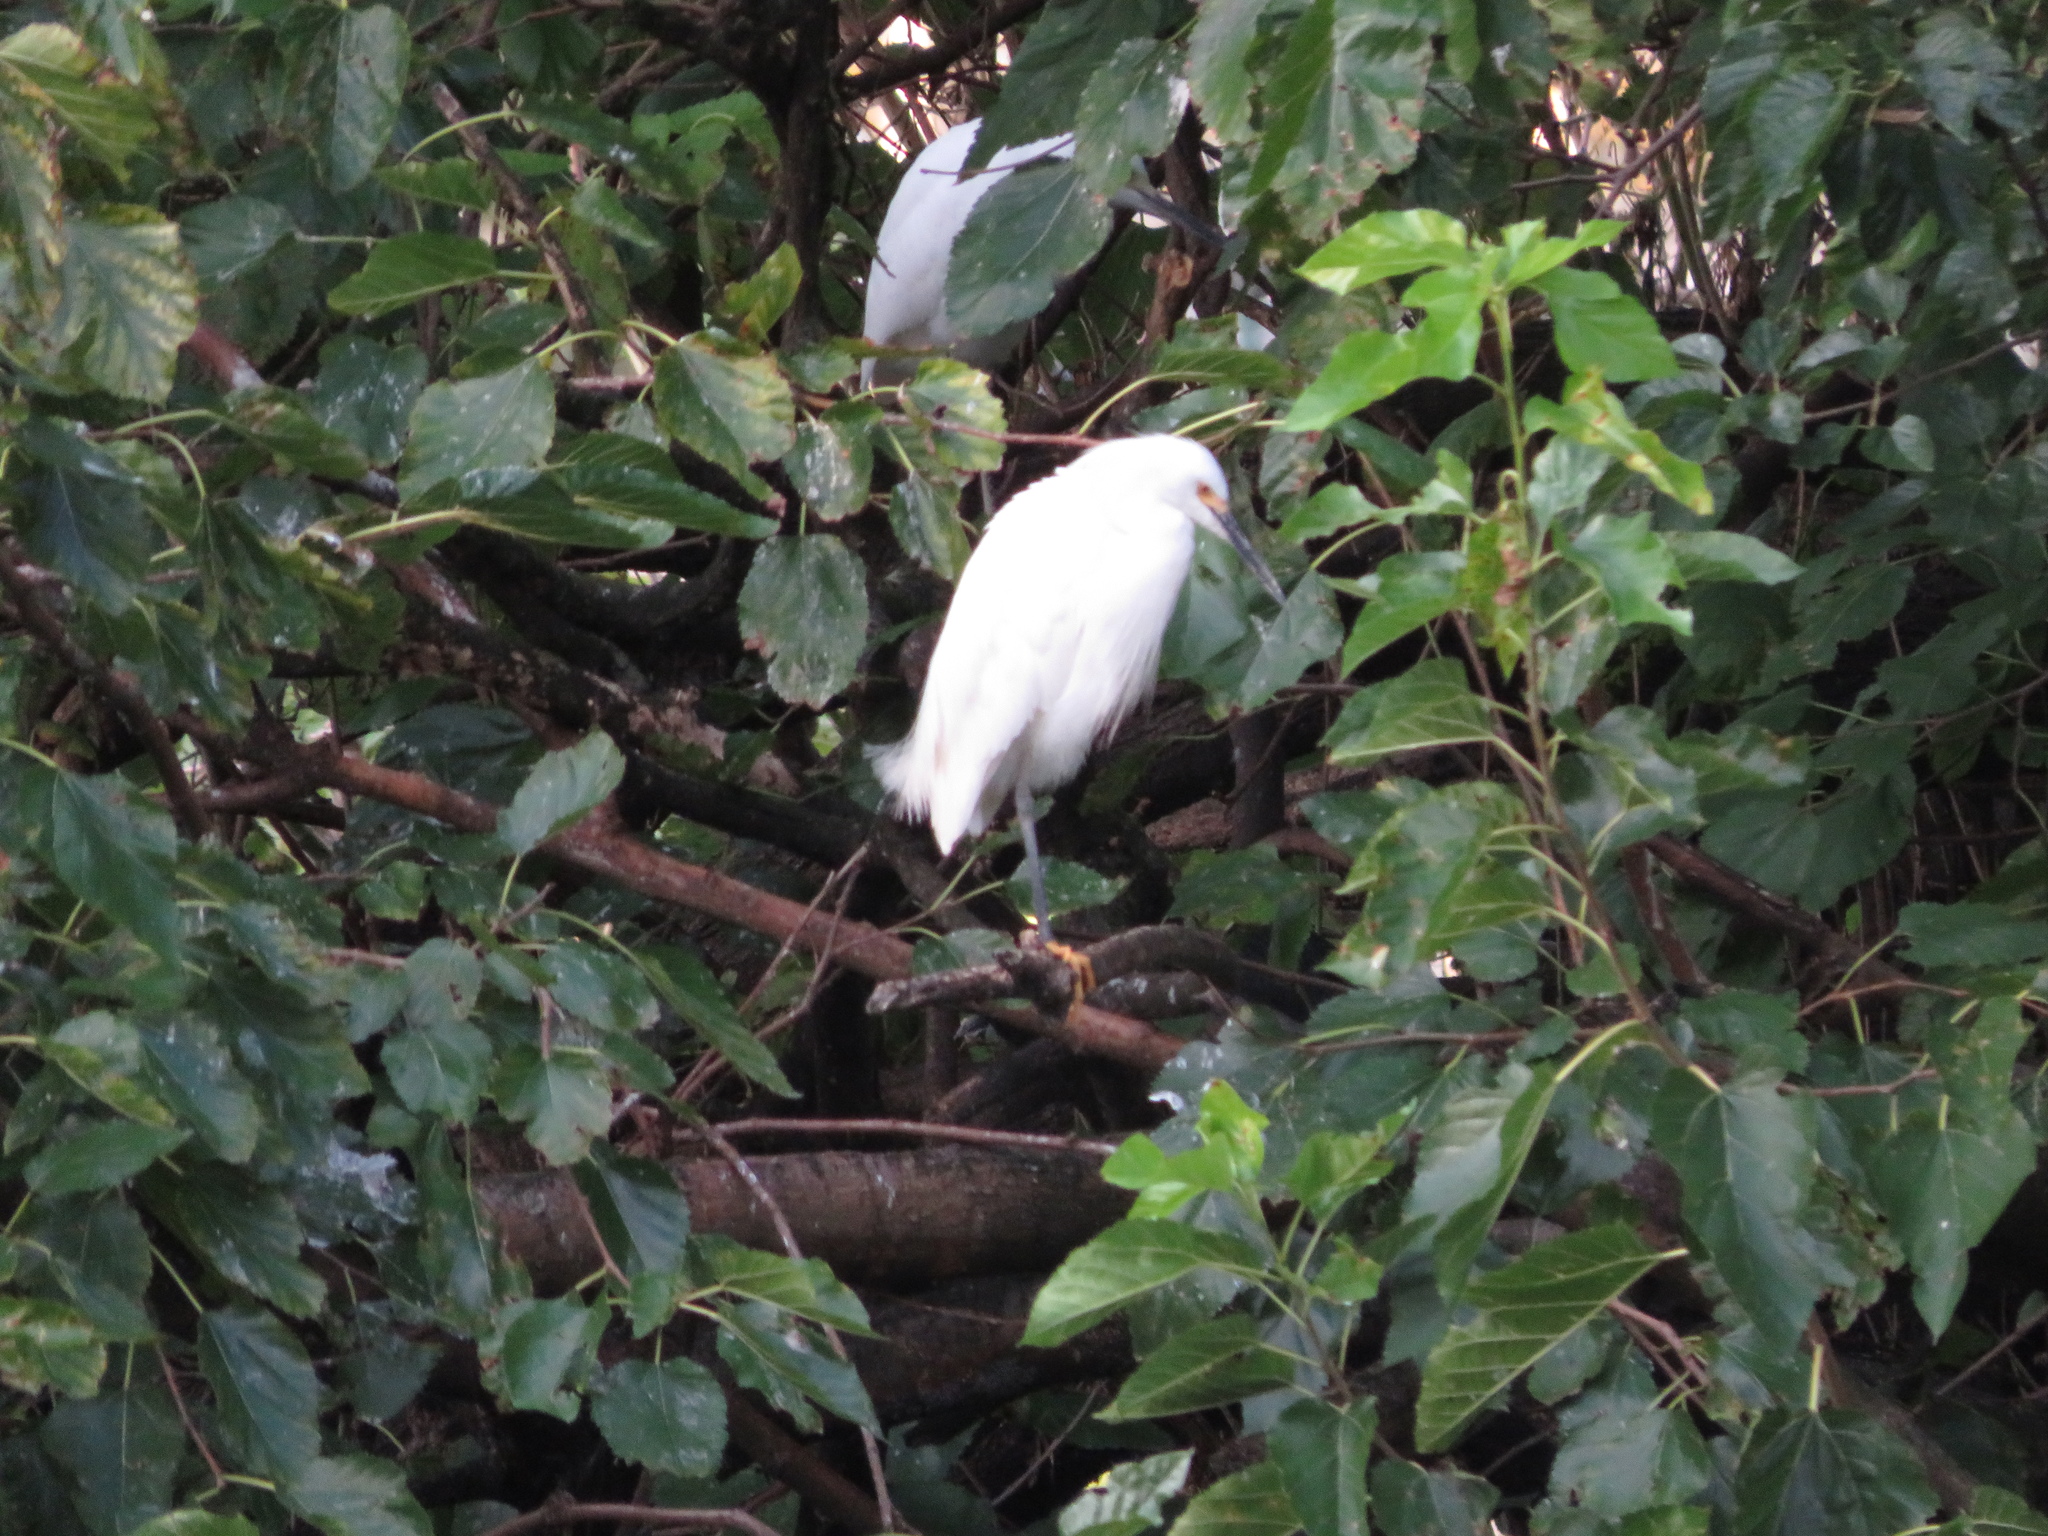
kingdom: Animalia
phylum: Chordata
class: Aves
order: Pelecaniformes
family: Ardeidae
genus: Egretta
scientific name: Egretta thula
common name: Snowy egret
